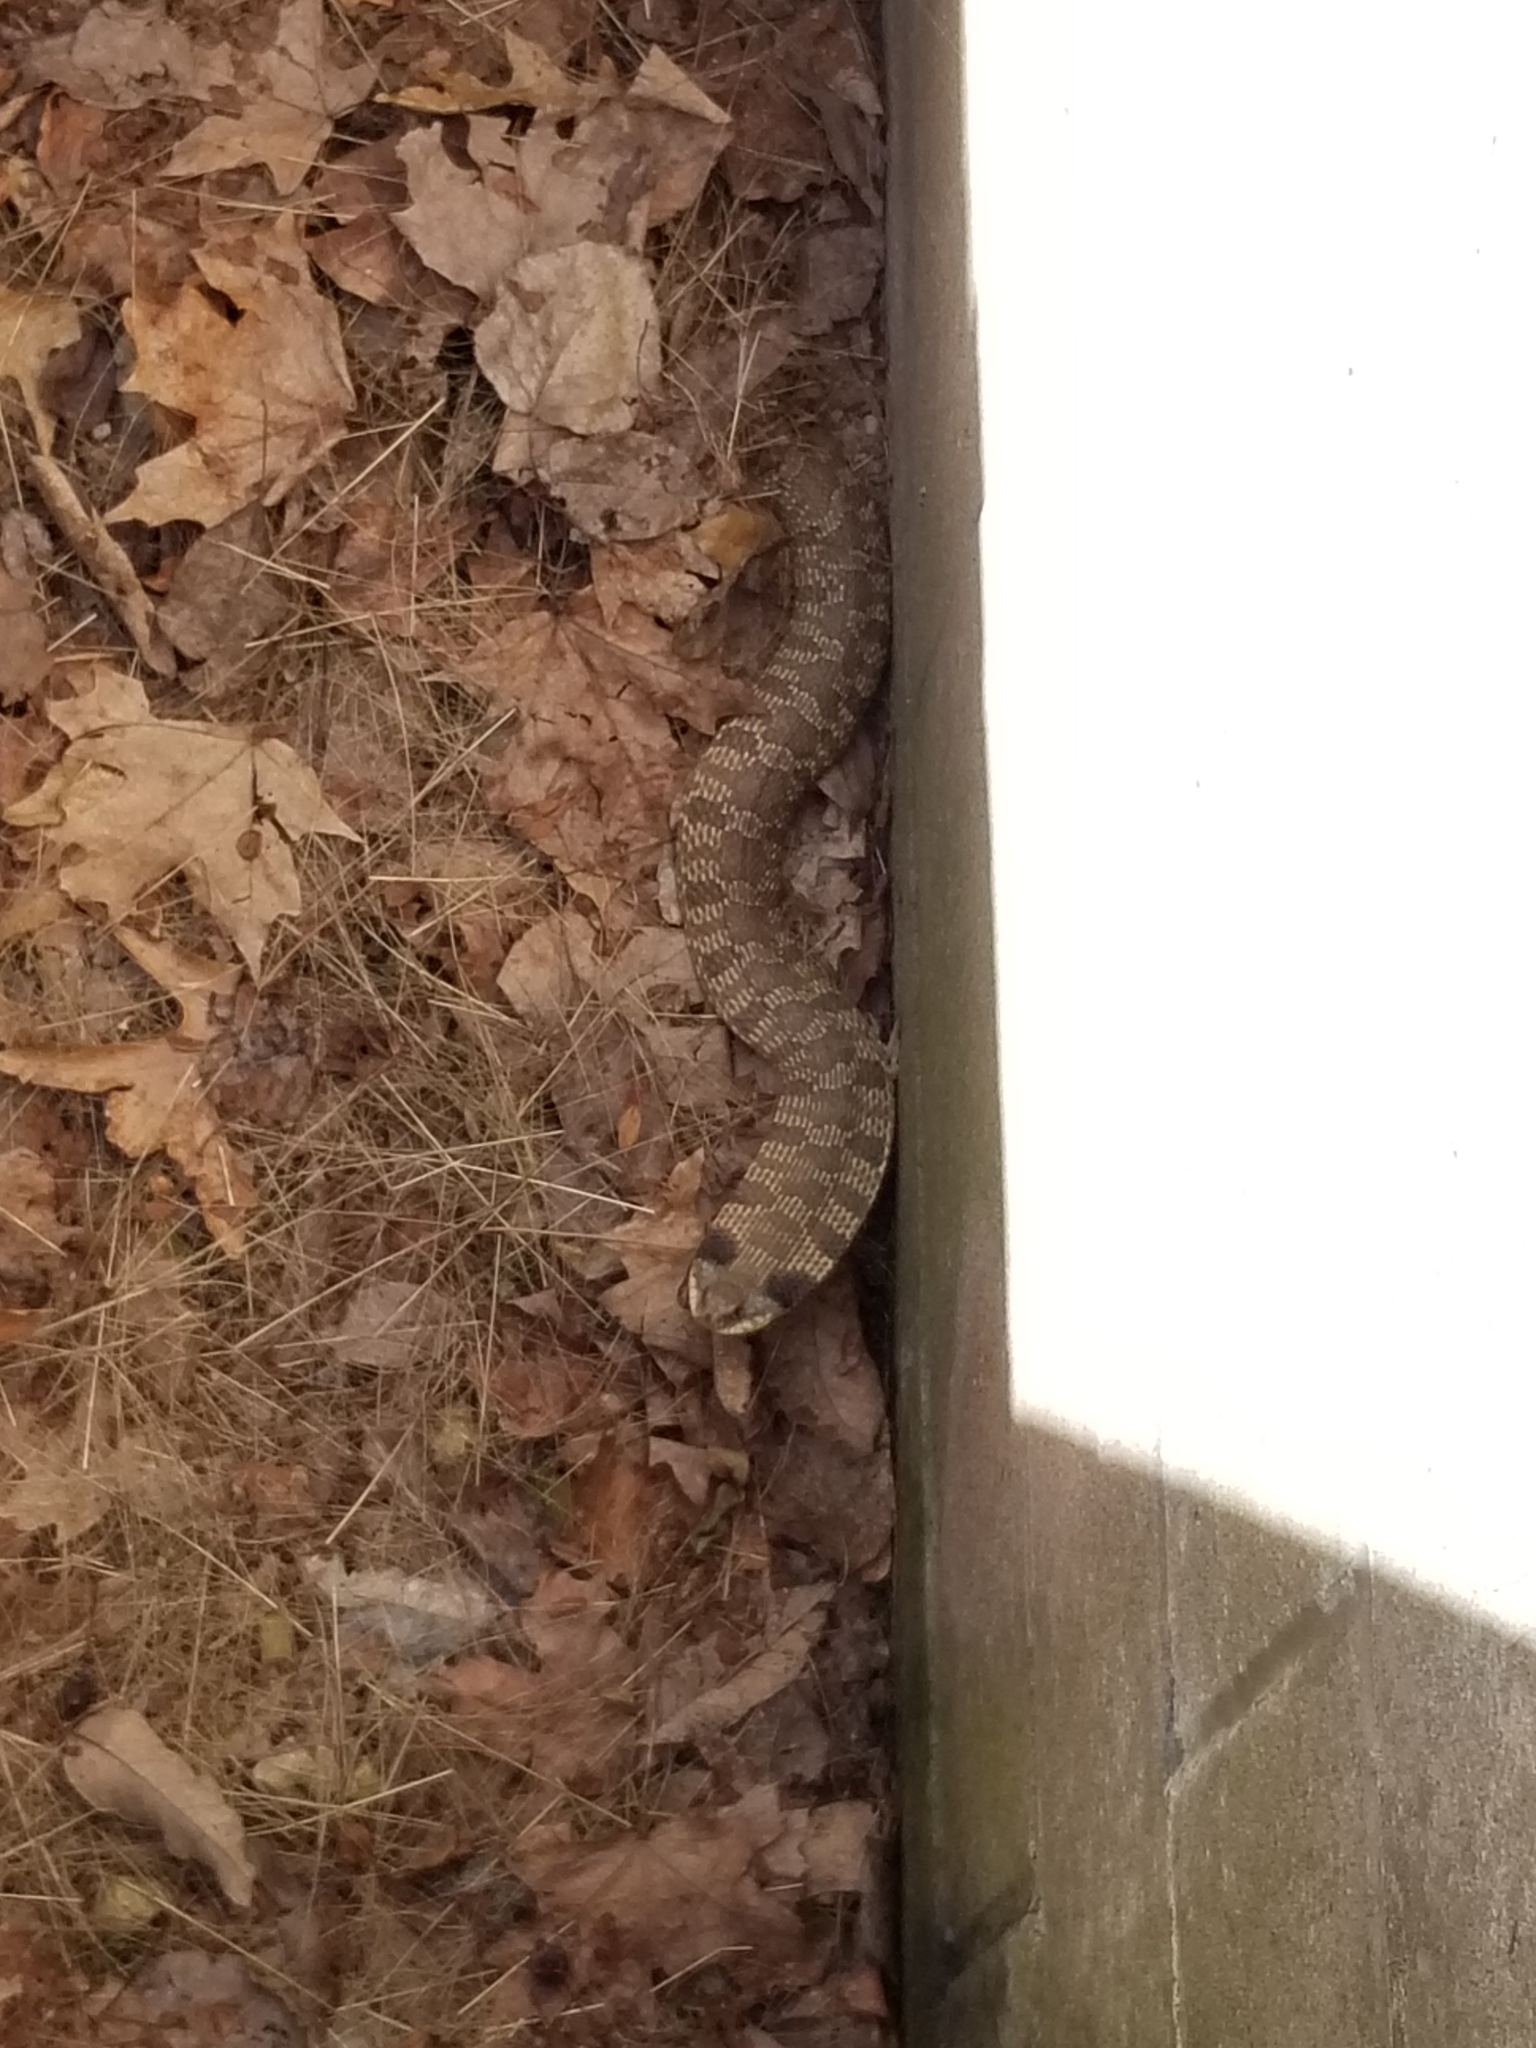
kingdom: Animalia
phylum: Chordata
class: Squamata
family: Colubridae
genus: Heterodon
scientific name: Heterodon platirhinos
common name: Eastern hognose snake
